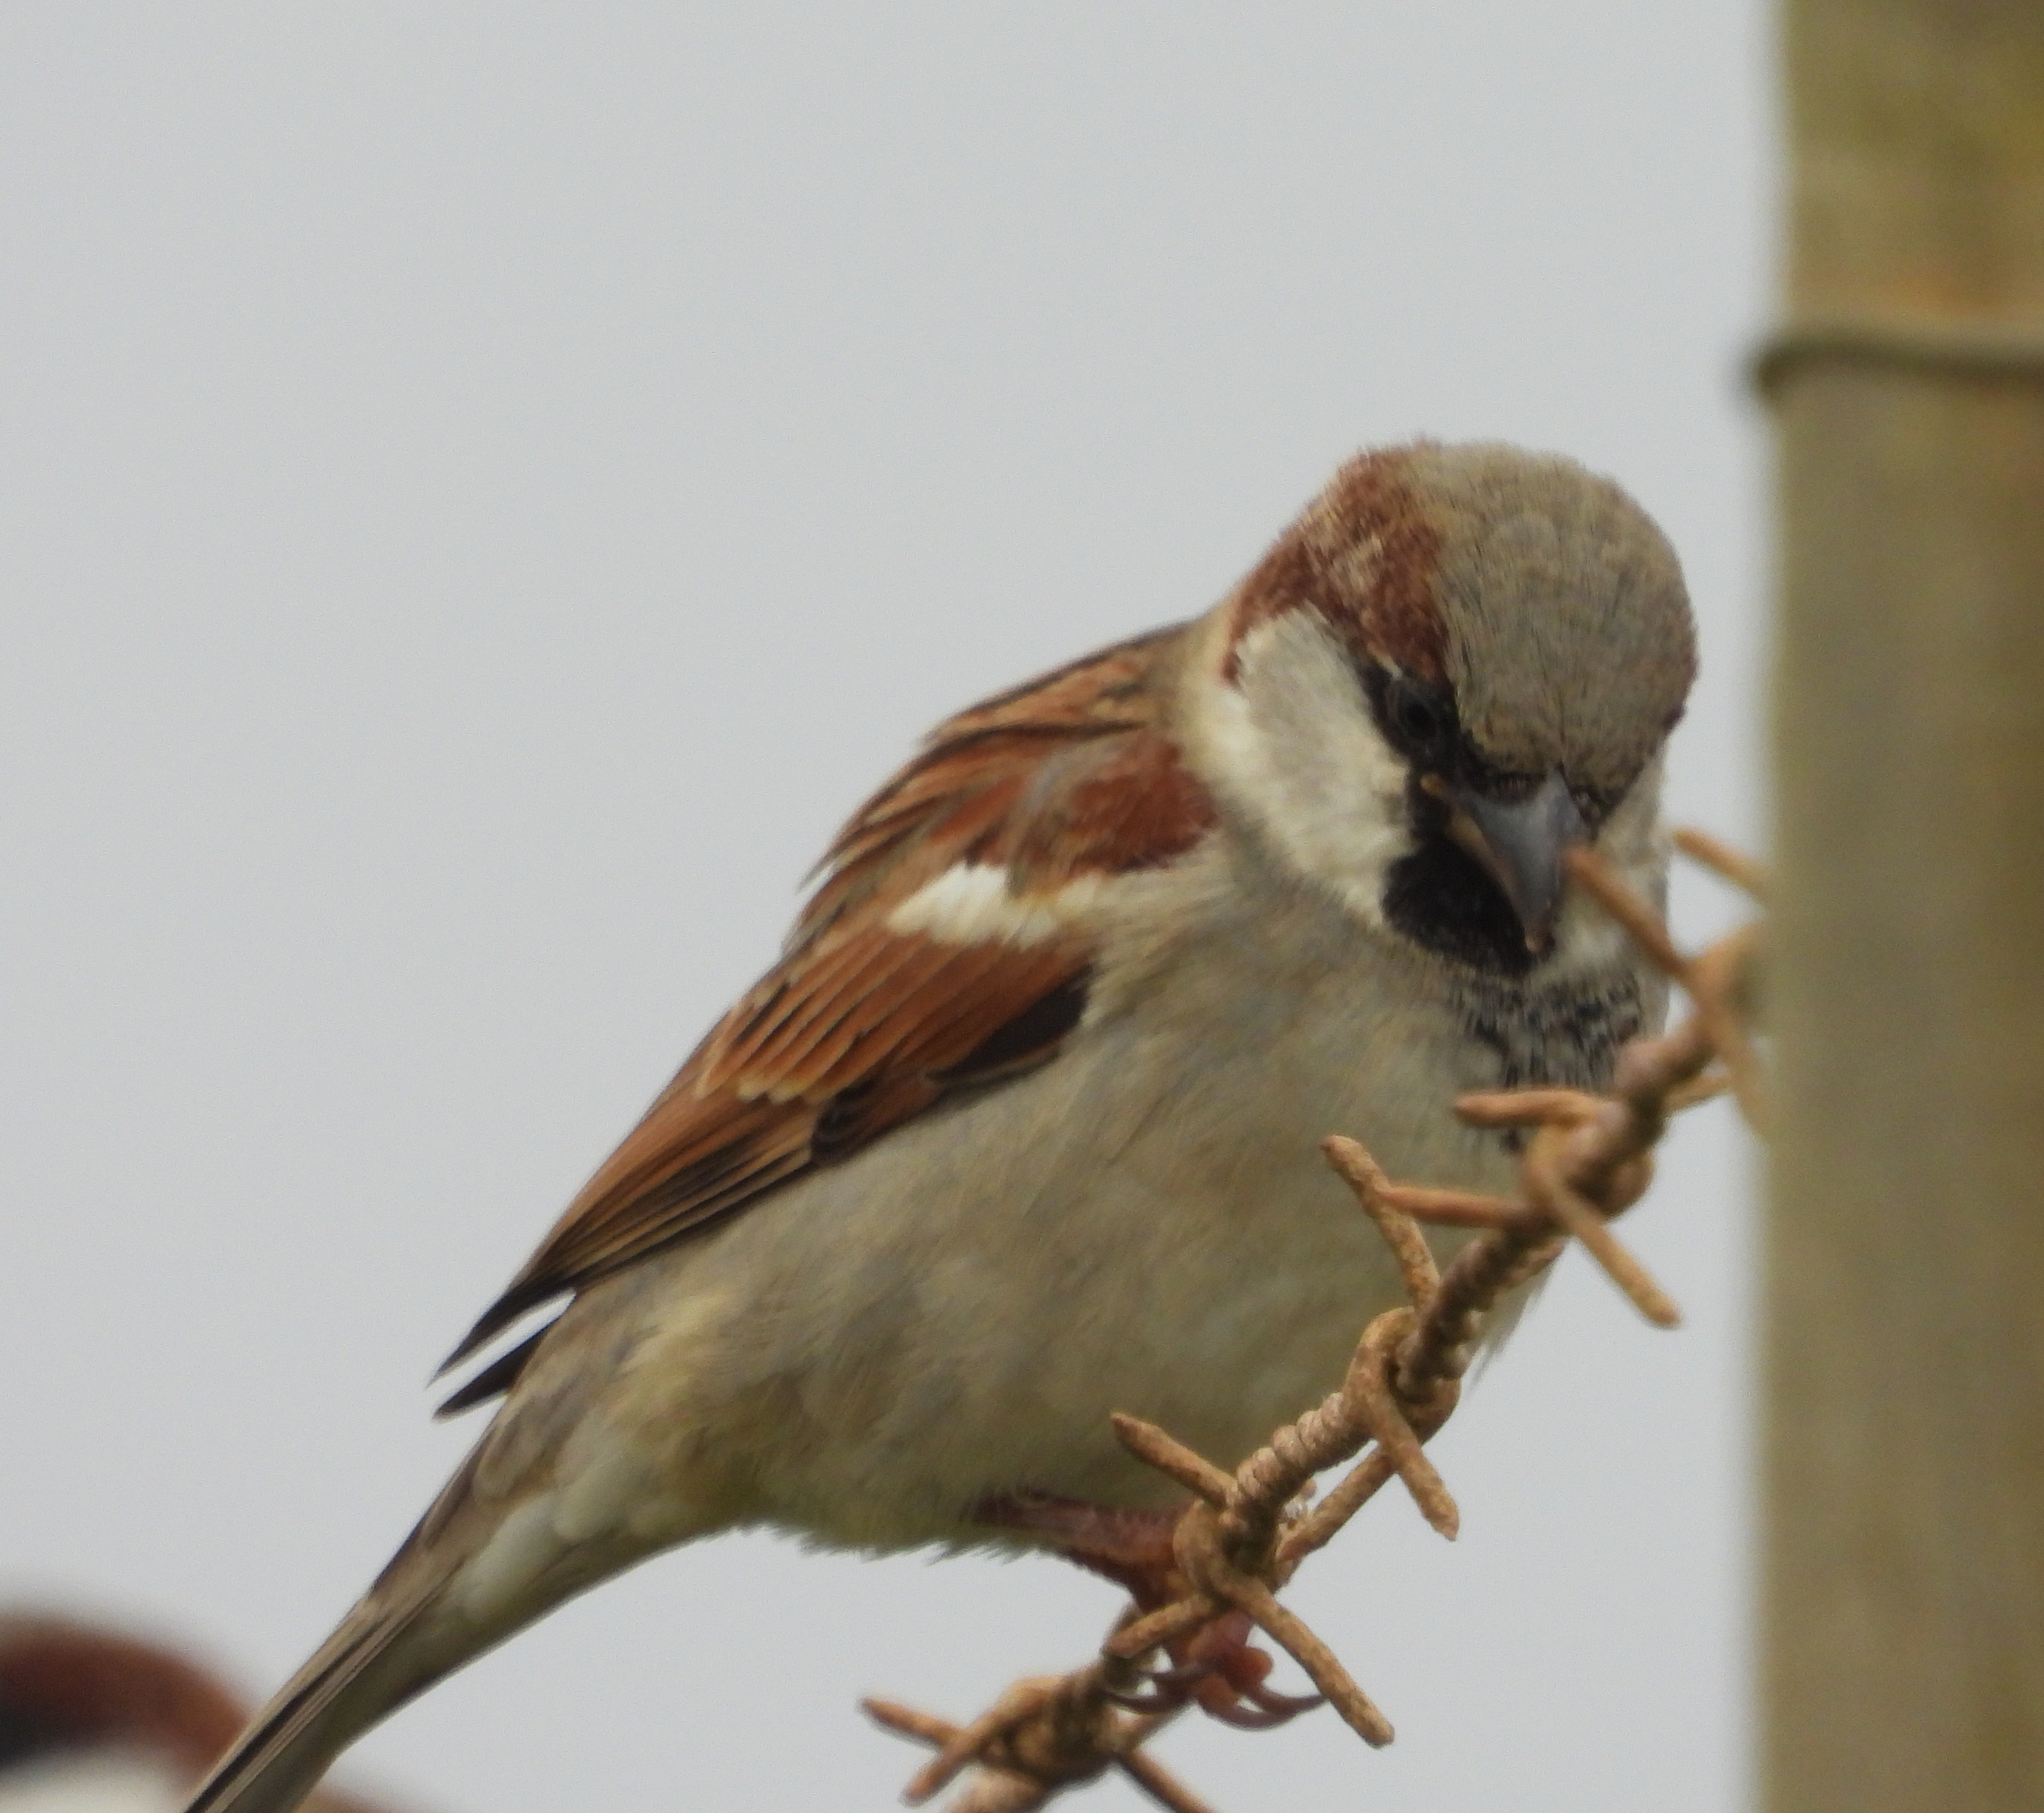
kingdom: Animalia
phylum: Chordata
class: Aves
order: Passeriformes
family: Passeridae
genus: Passer
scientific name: Passer domesticus
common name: House sparrow
